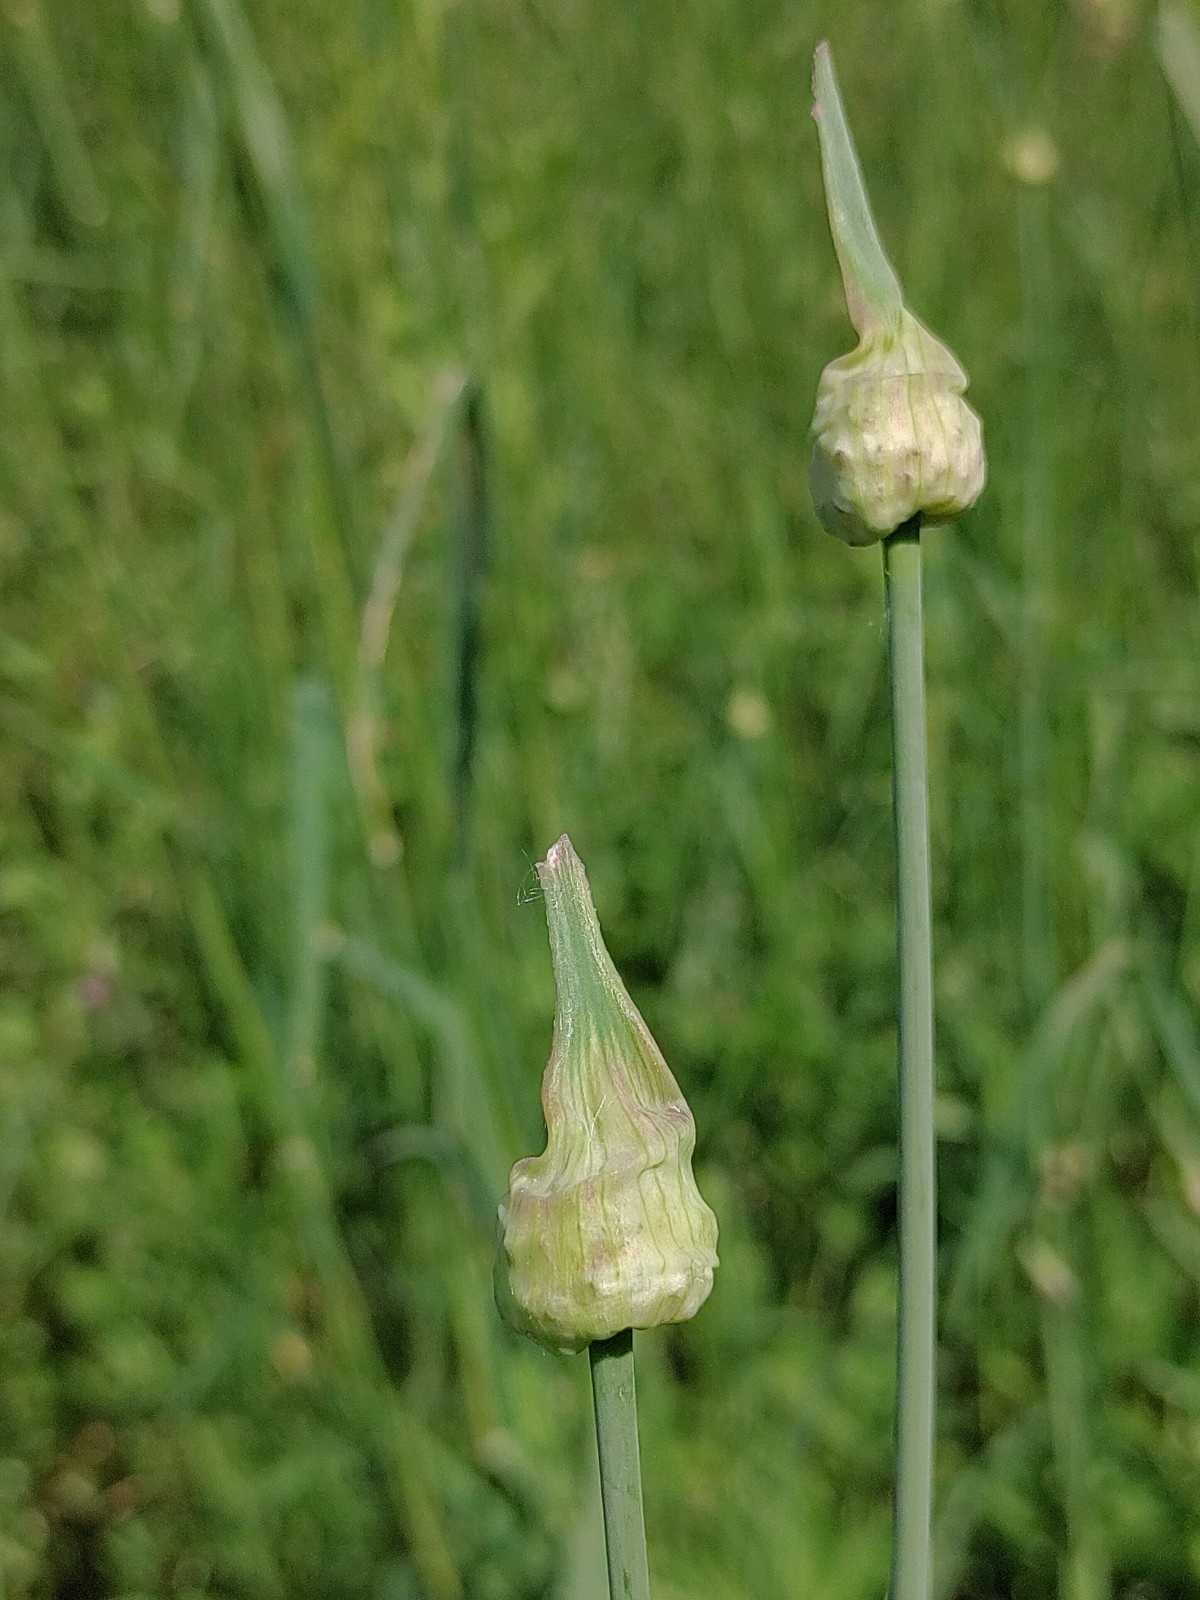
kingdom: Plantae
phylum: Tracheophyta
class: Liliopsida
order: Asparagales
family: Amaryllidaceae
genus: Allium
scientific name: Allium scorodoprasum
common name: Sand leek
